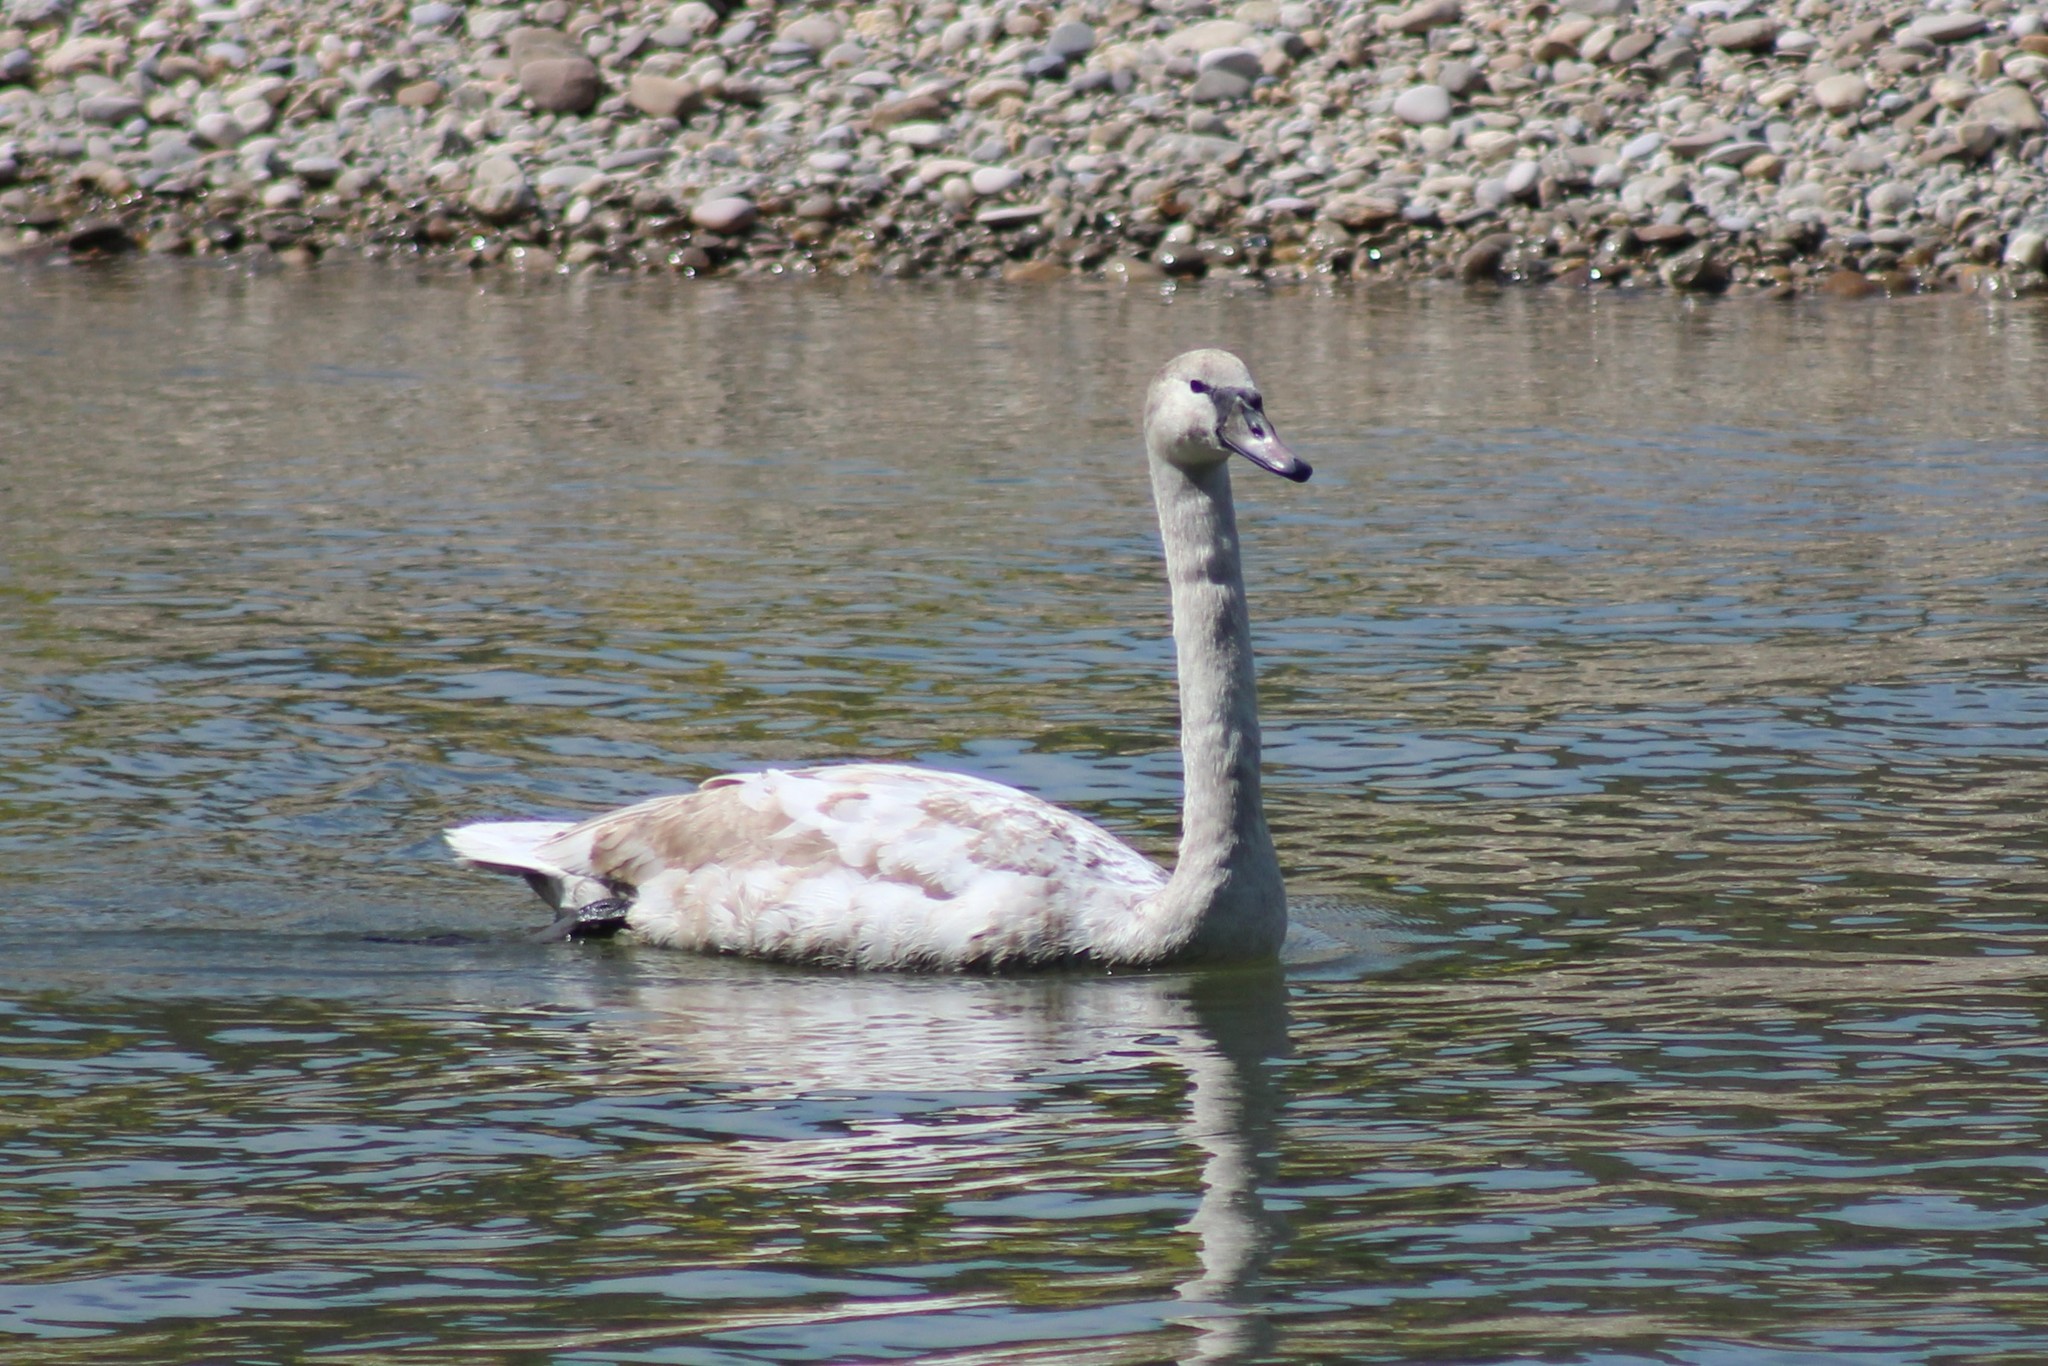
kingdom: Animalia
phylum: Chordata
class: Aves
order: Anseriformes
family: Anatidae
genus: Cygnus
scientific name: Cygnus olor
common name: Mute swan
